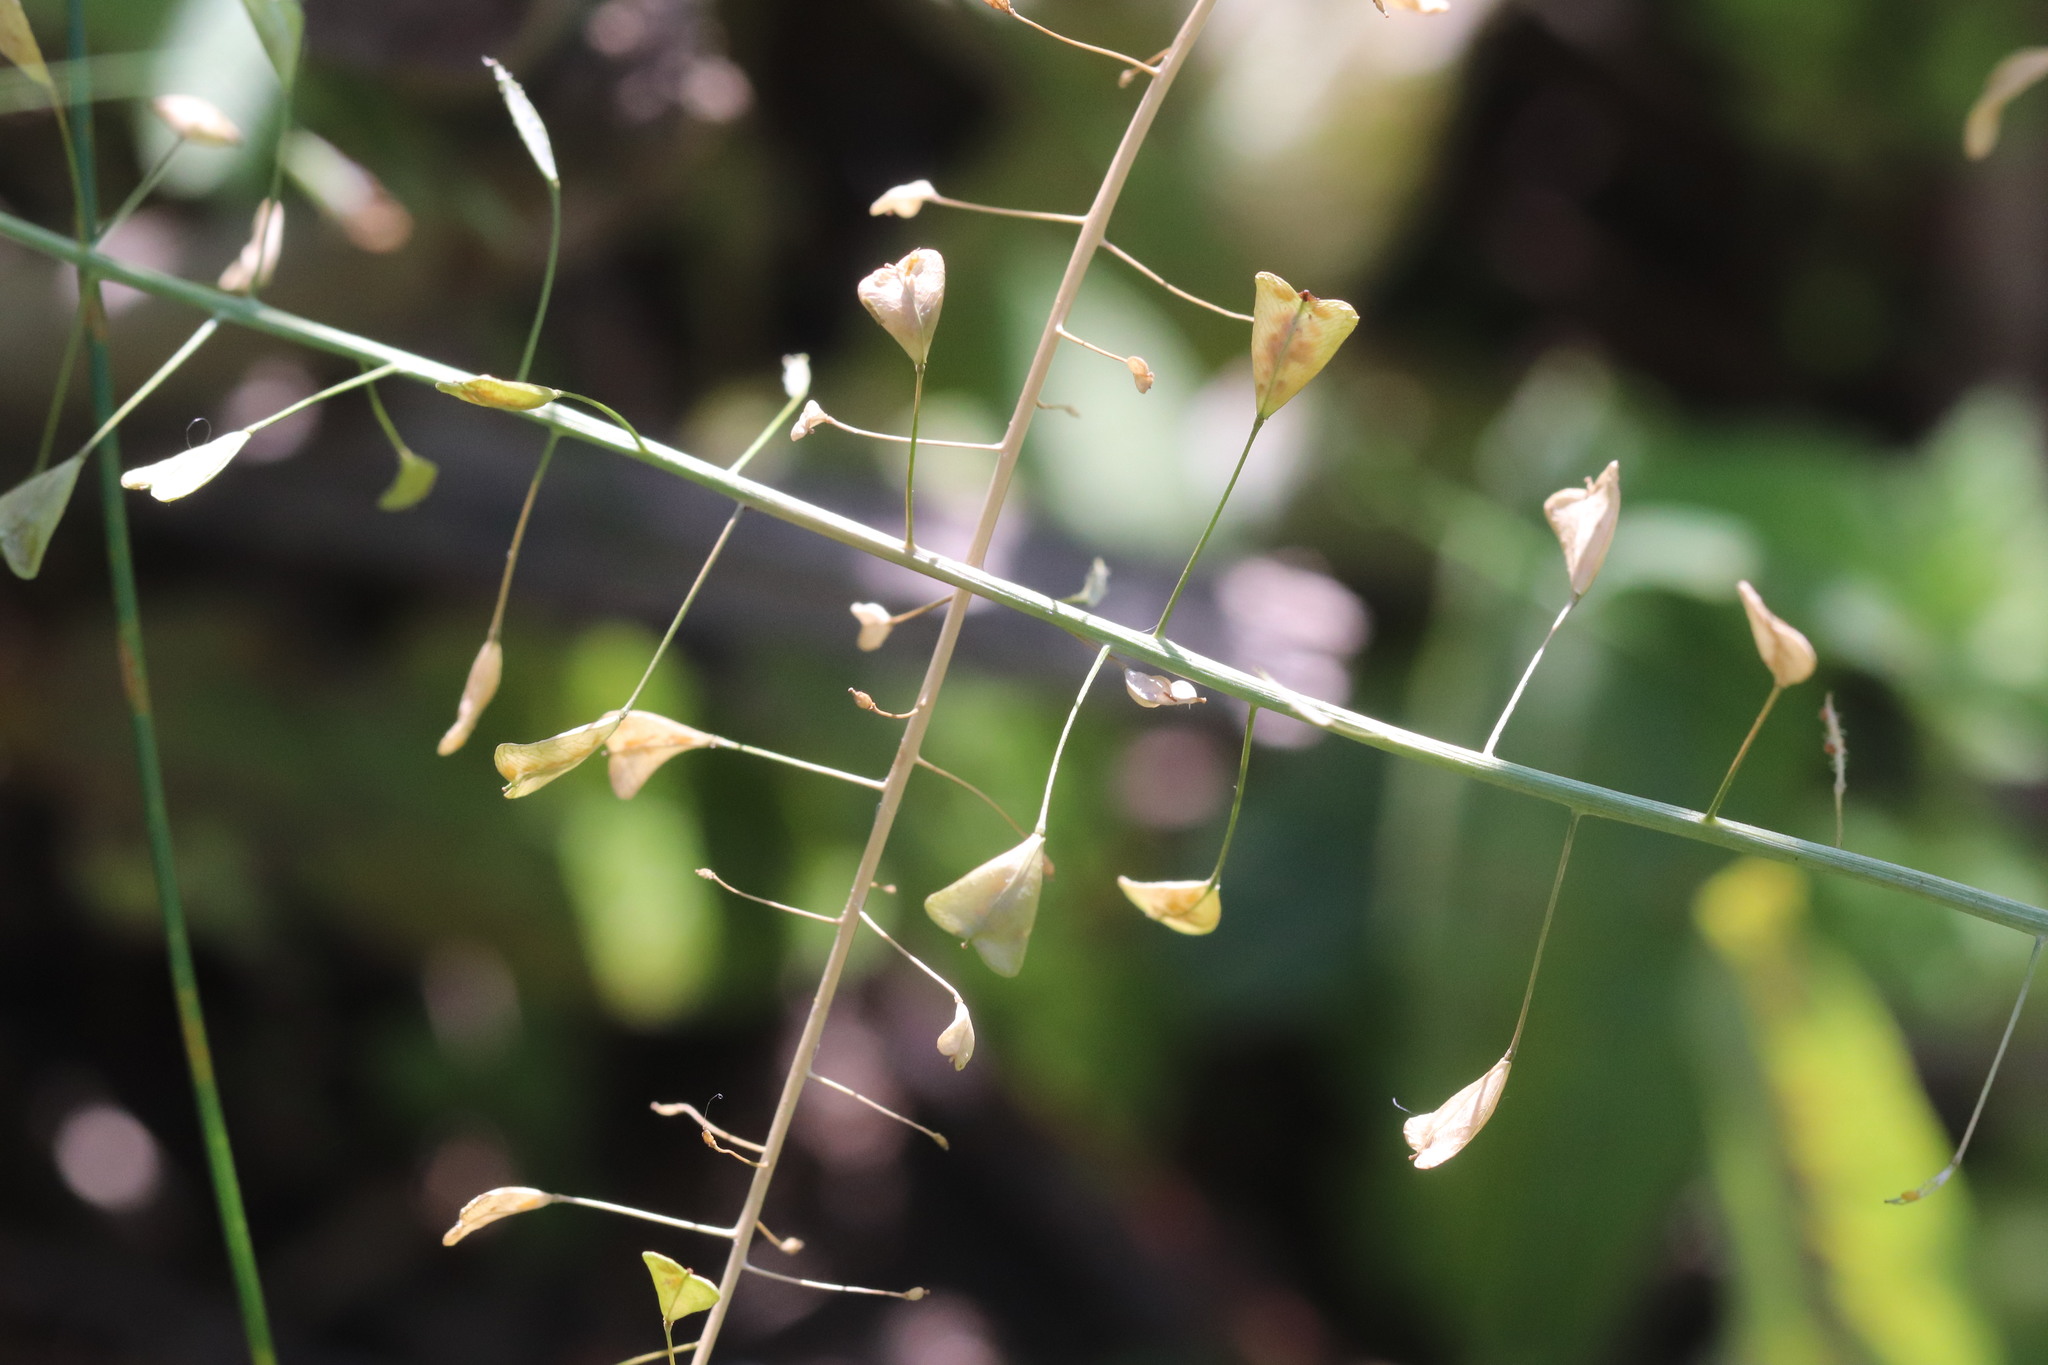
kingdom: Plantae
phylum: Tracheophyta
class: Magnoliopsida
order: Brassicales
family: Brassicaceae
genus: Capsella
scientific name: Capsella bursa-pastoris
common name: Shepherd's purse
